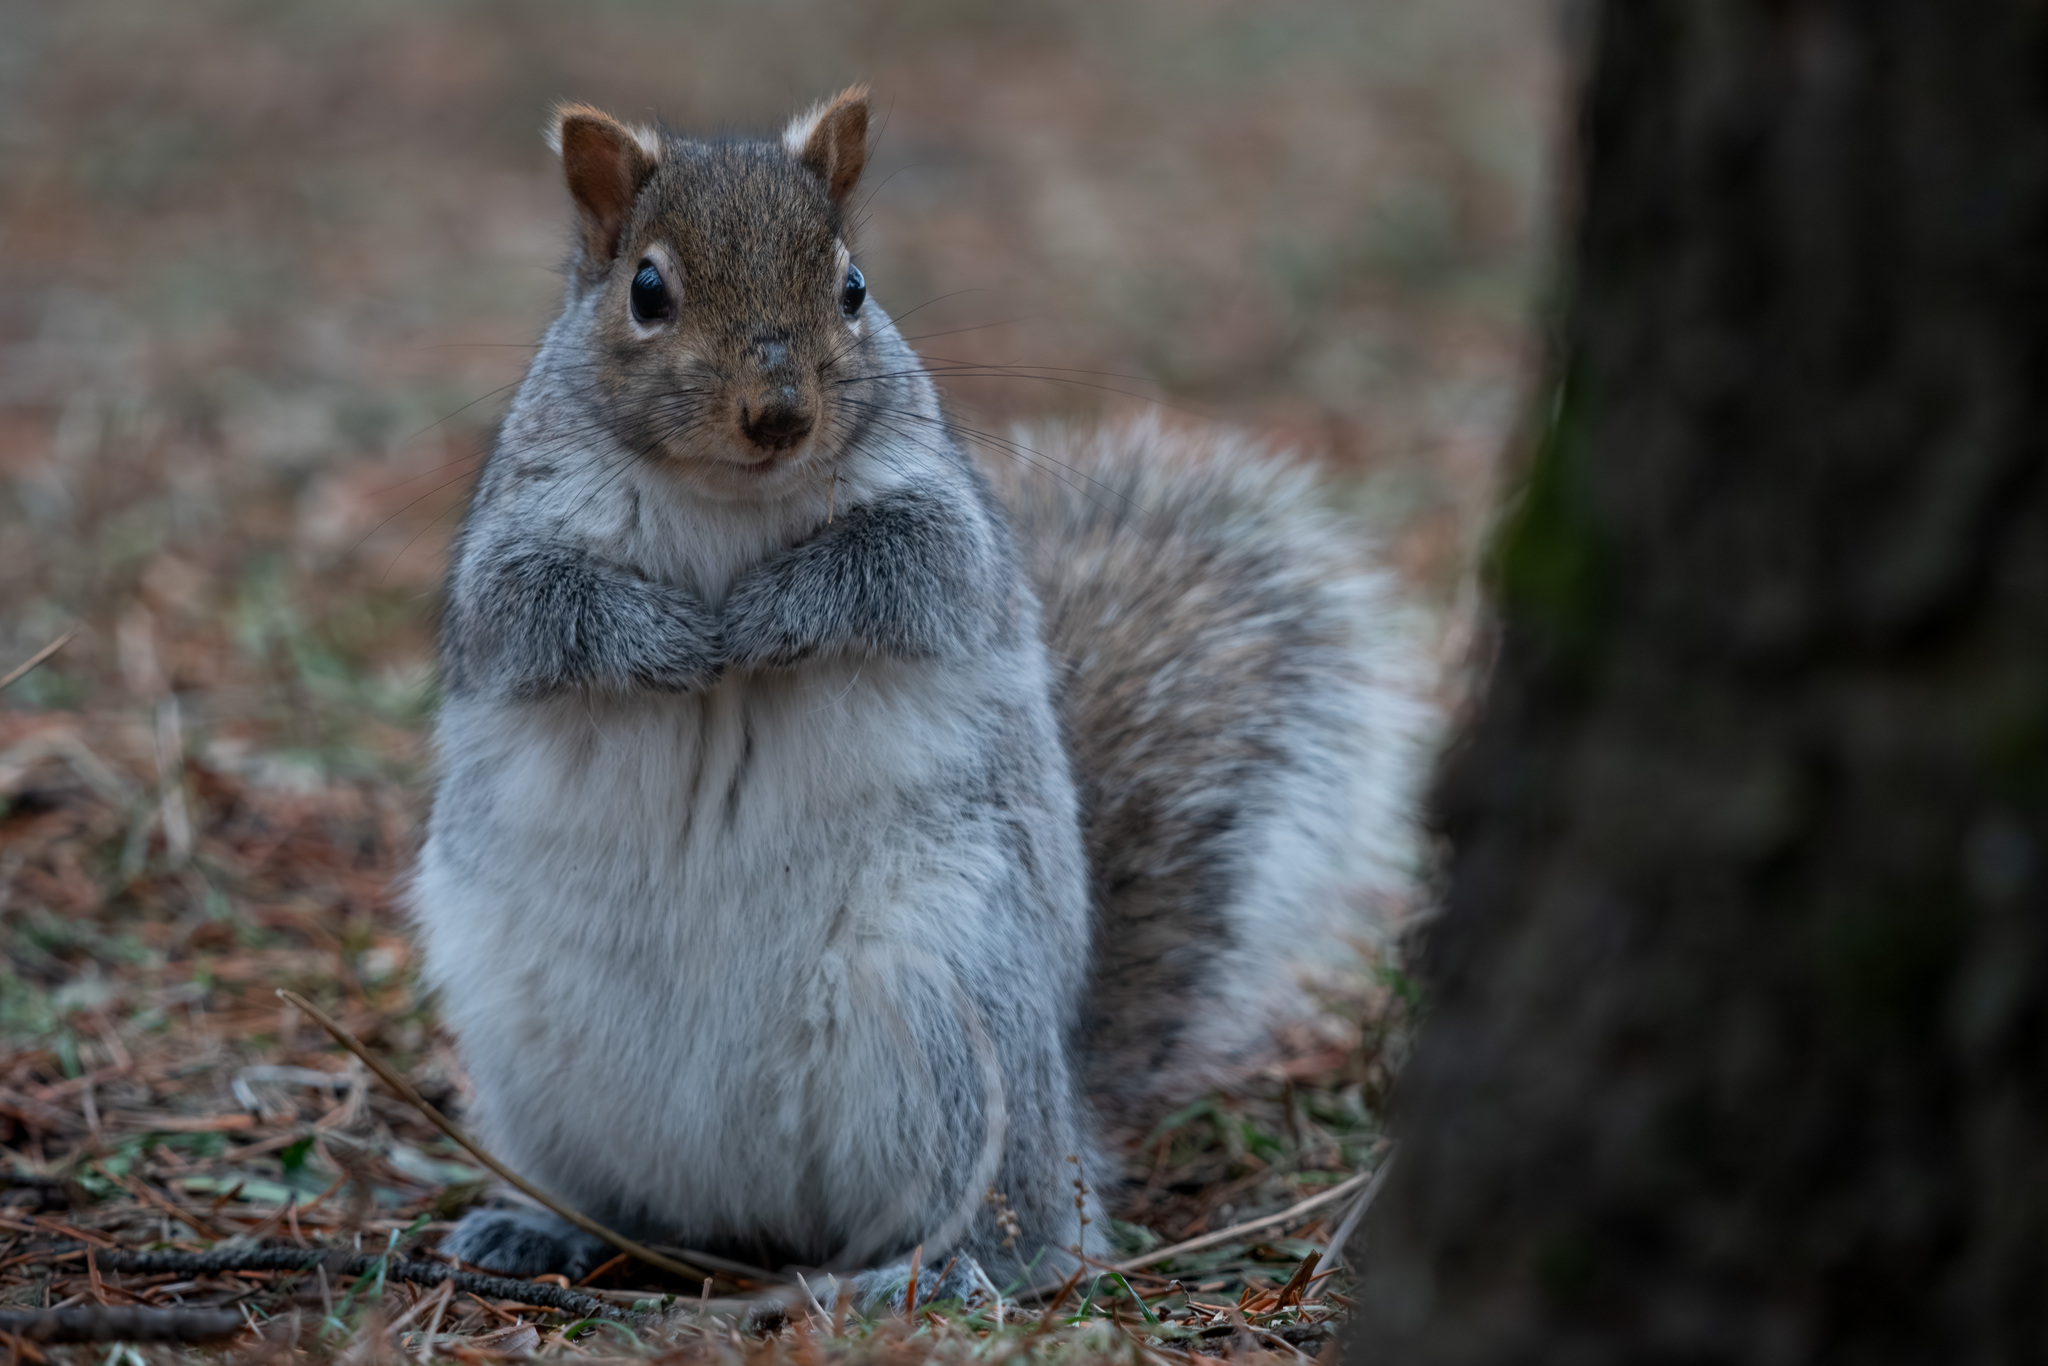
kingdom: Animalia
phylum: Chordata
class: Mammalia
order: Rodentia
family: Sciuridae
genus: Sciurus
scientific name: Sciurus carolinensis
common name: Eastern gray squirrel
